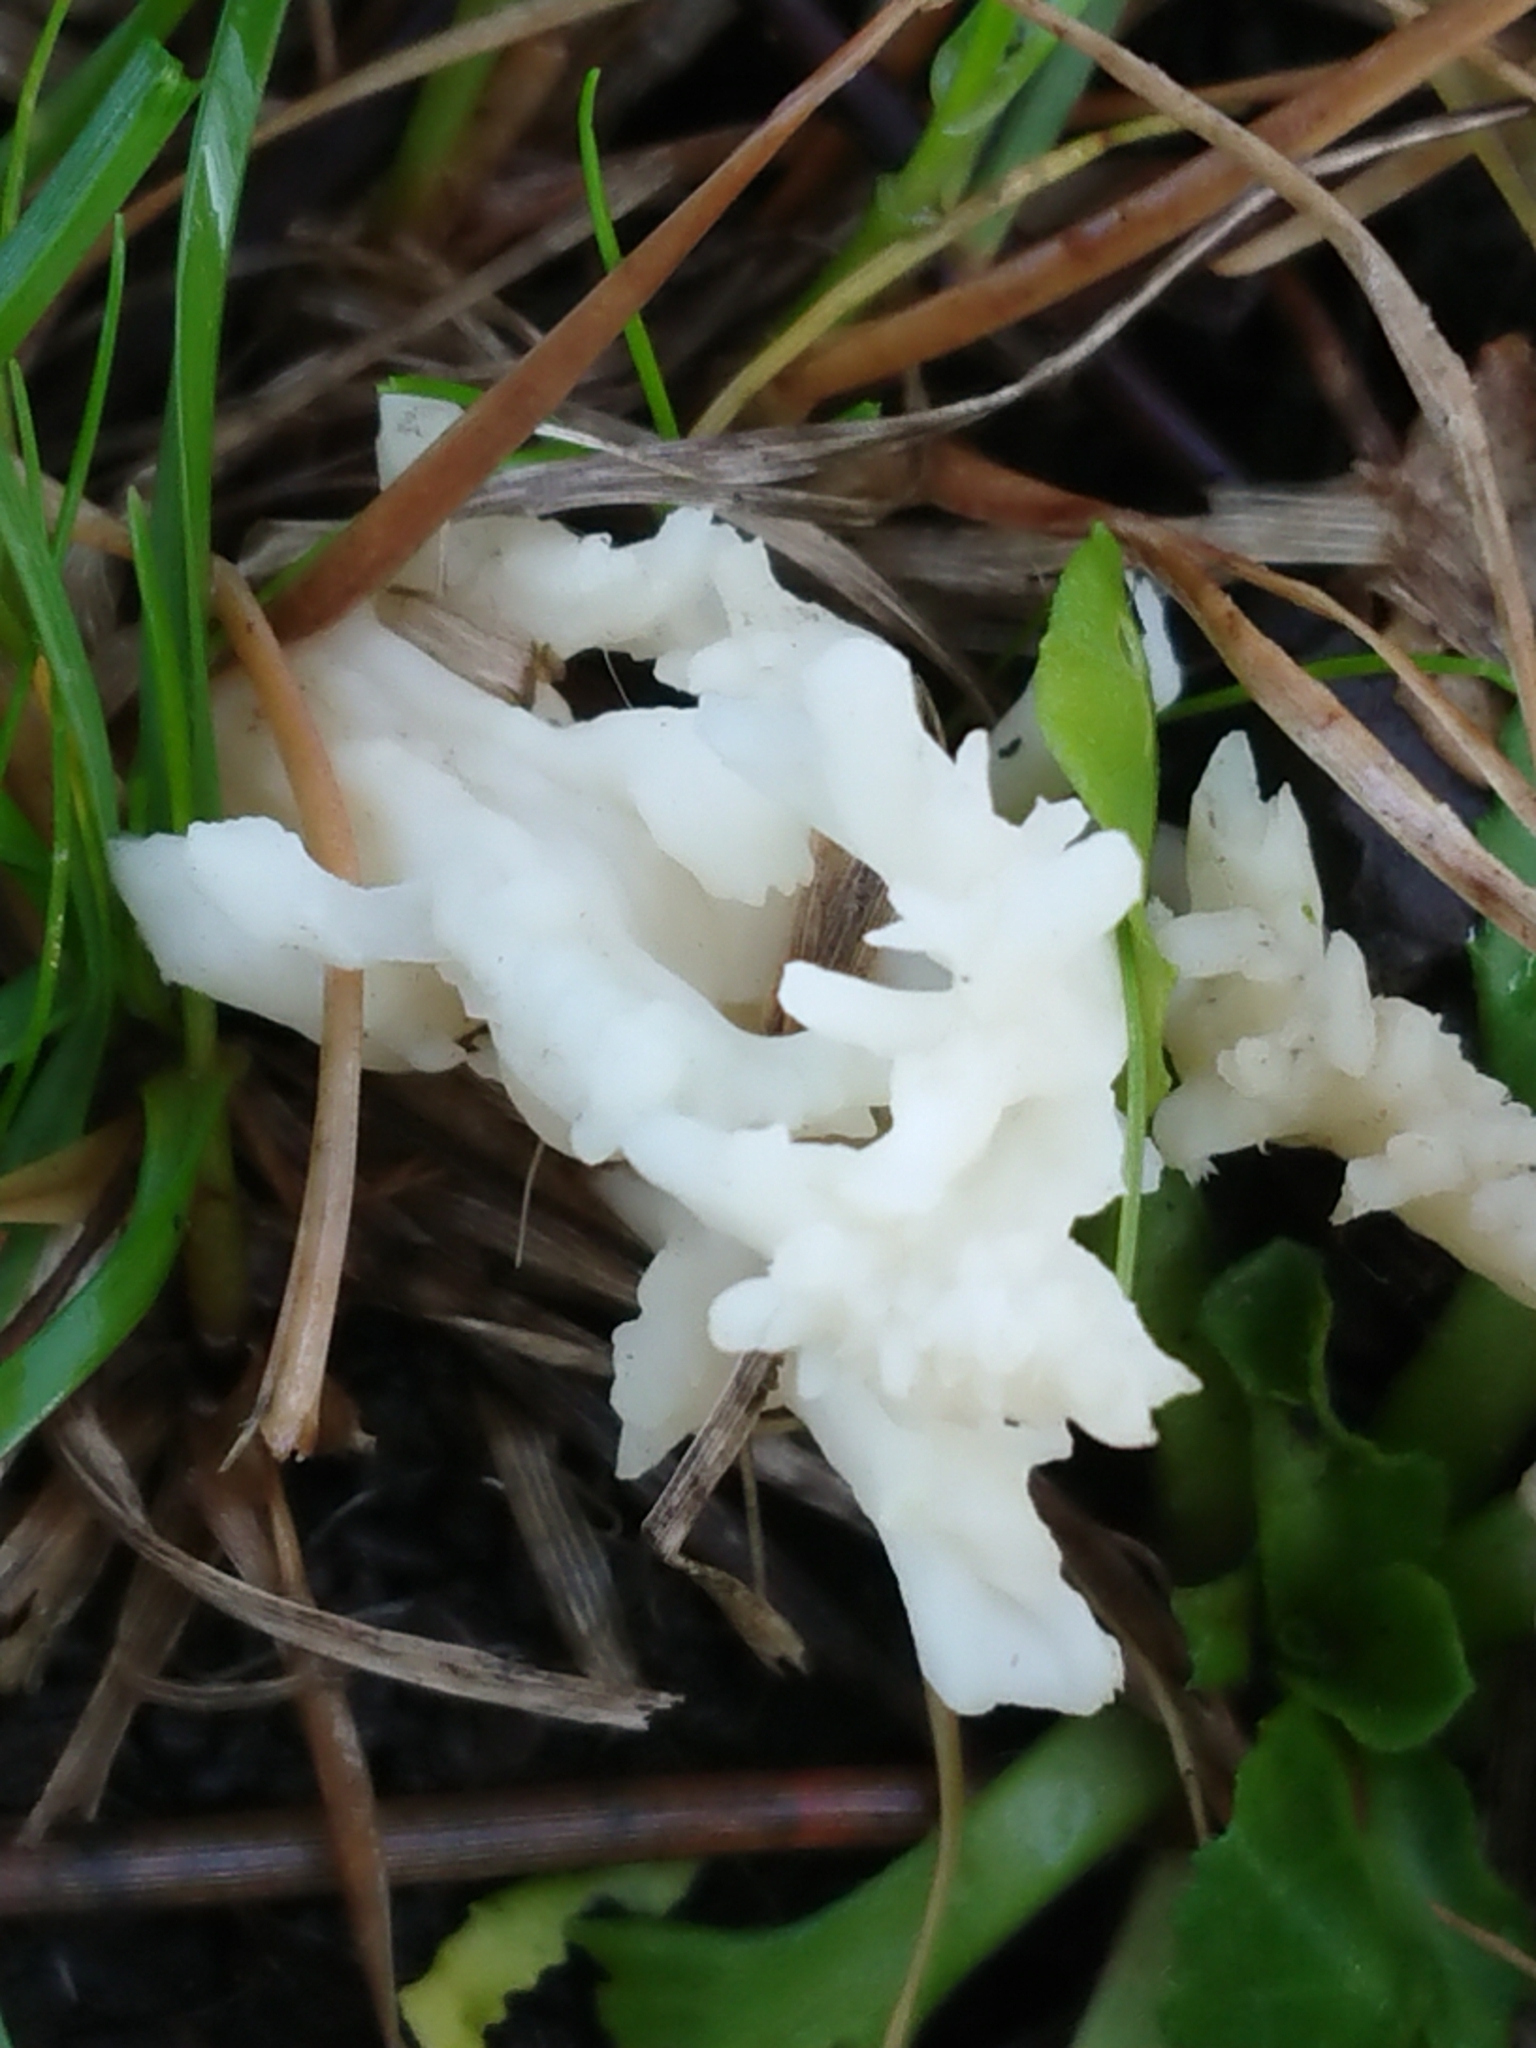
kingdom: Fungi
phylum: Basidiomycota
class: Agaricomycetes
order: Cantharellales
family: Hydnaceae
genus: Clavulina
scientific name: Clavulina rugosa
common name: Wrinkled club
